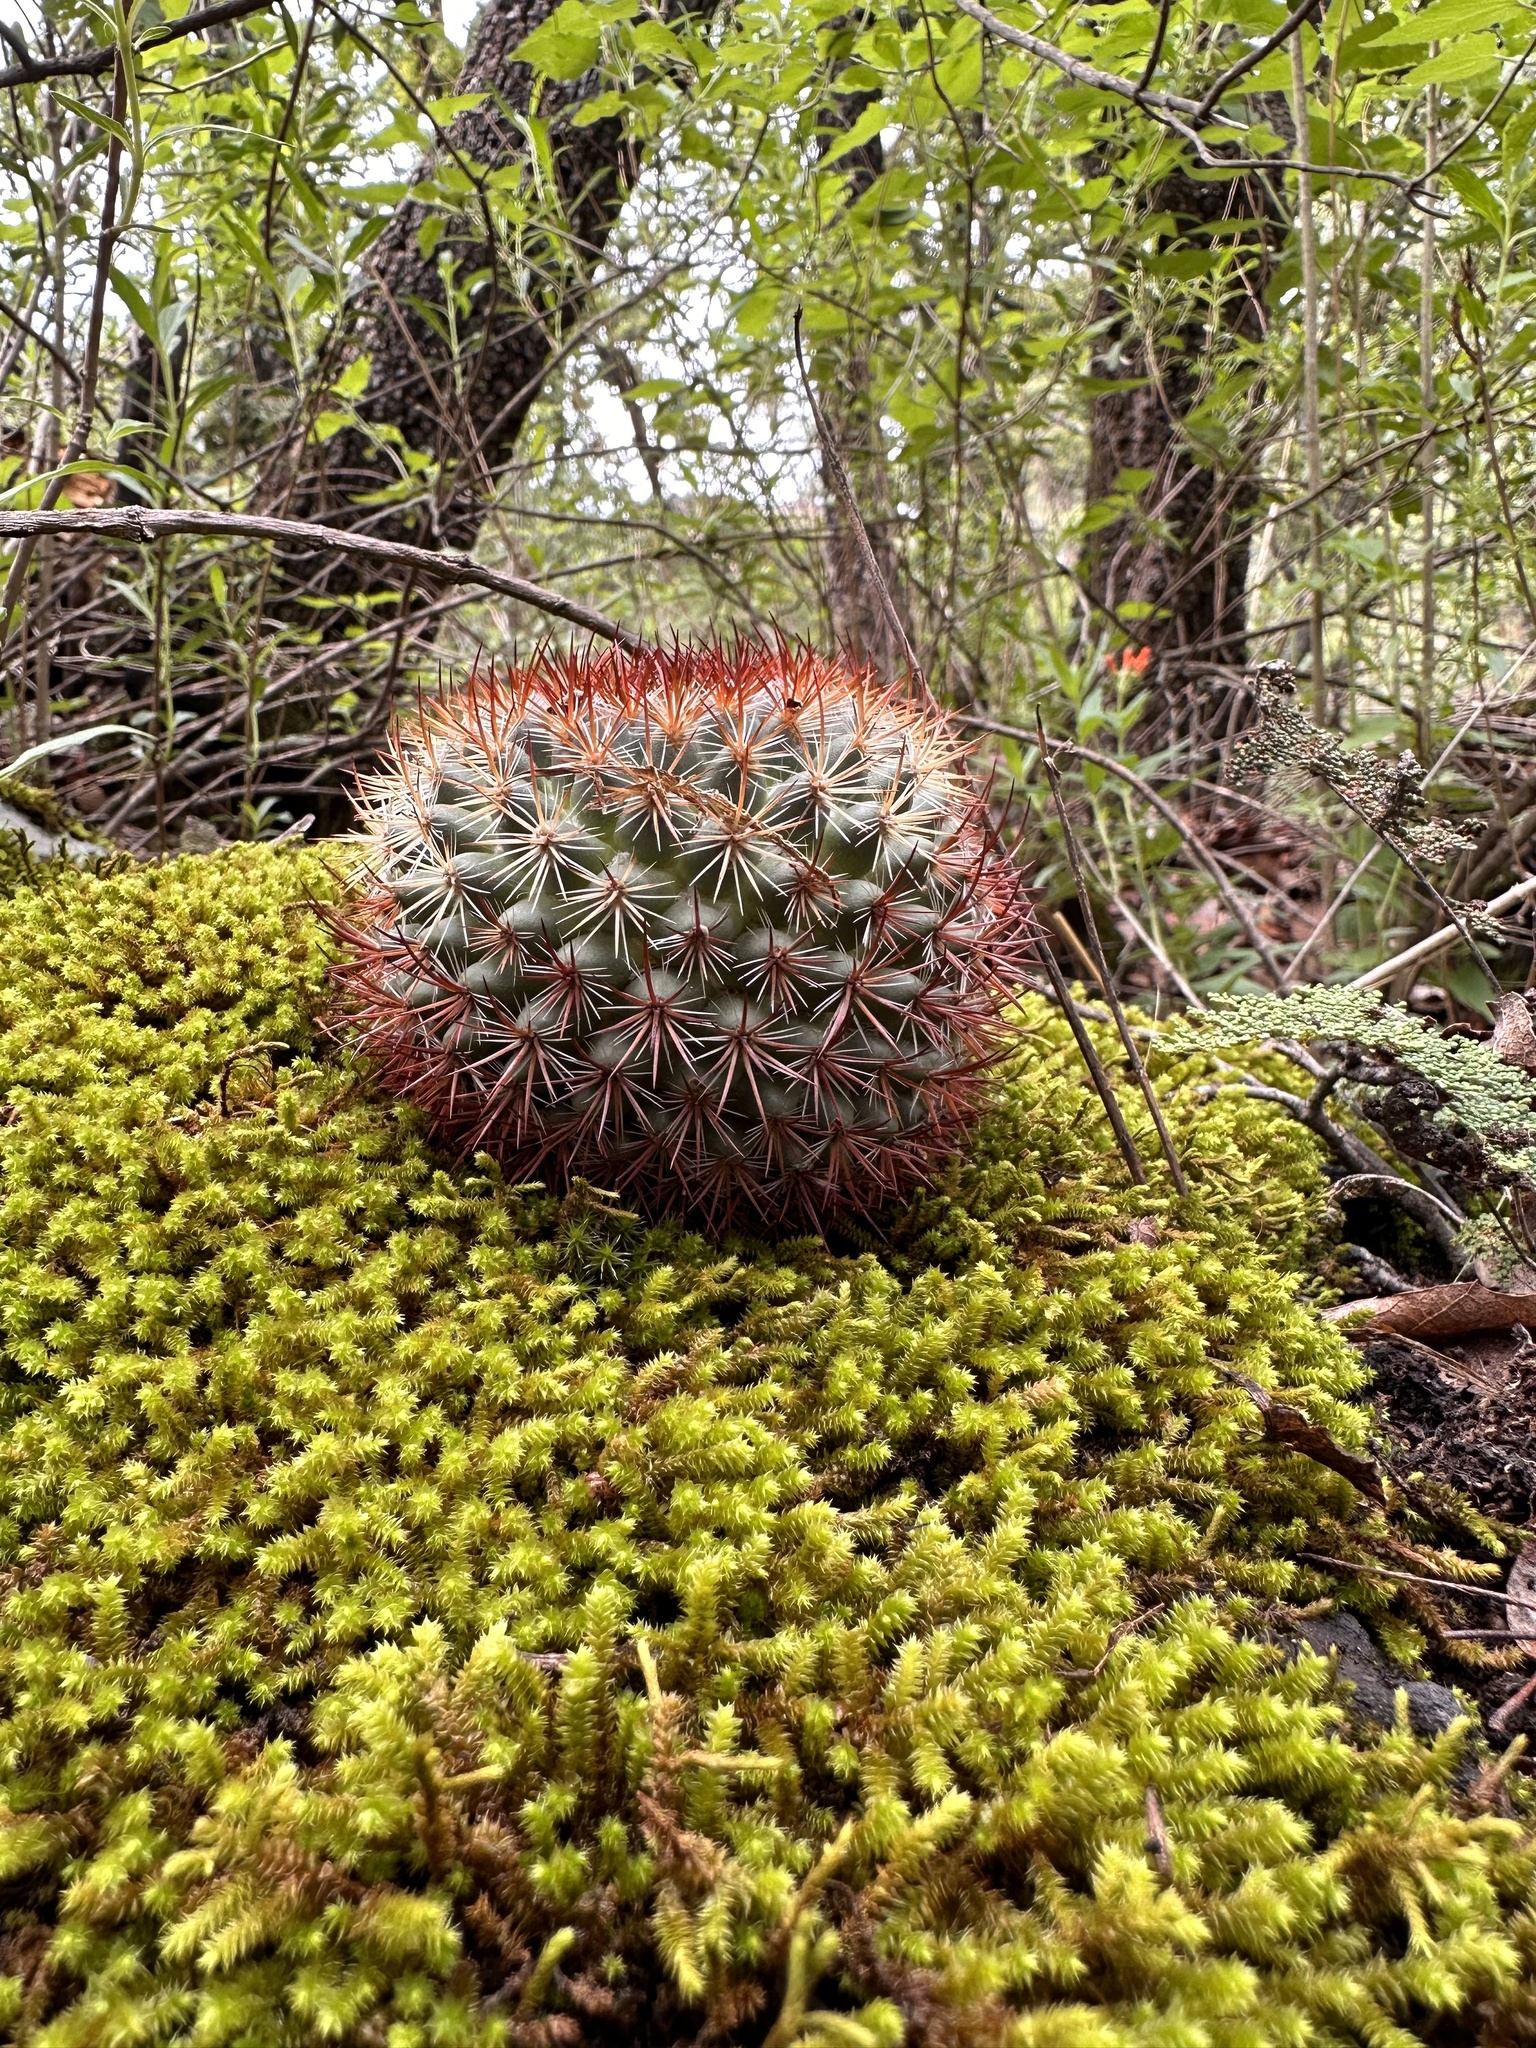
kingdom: Plantae
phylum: Tracheophyta
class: Magnoliopsida
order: Caryophyllales
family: Cactaceae
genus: Mammillaria
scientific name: Mammillaria rhodantha
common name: Rainbow pincushion
